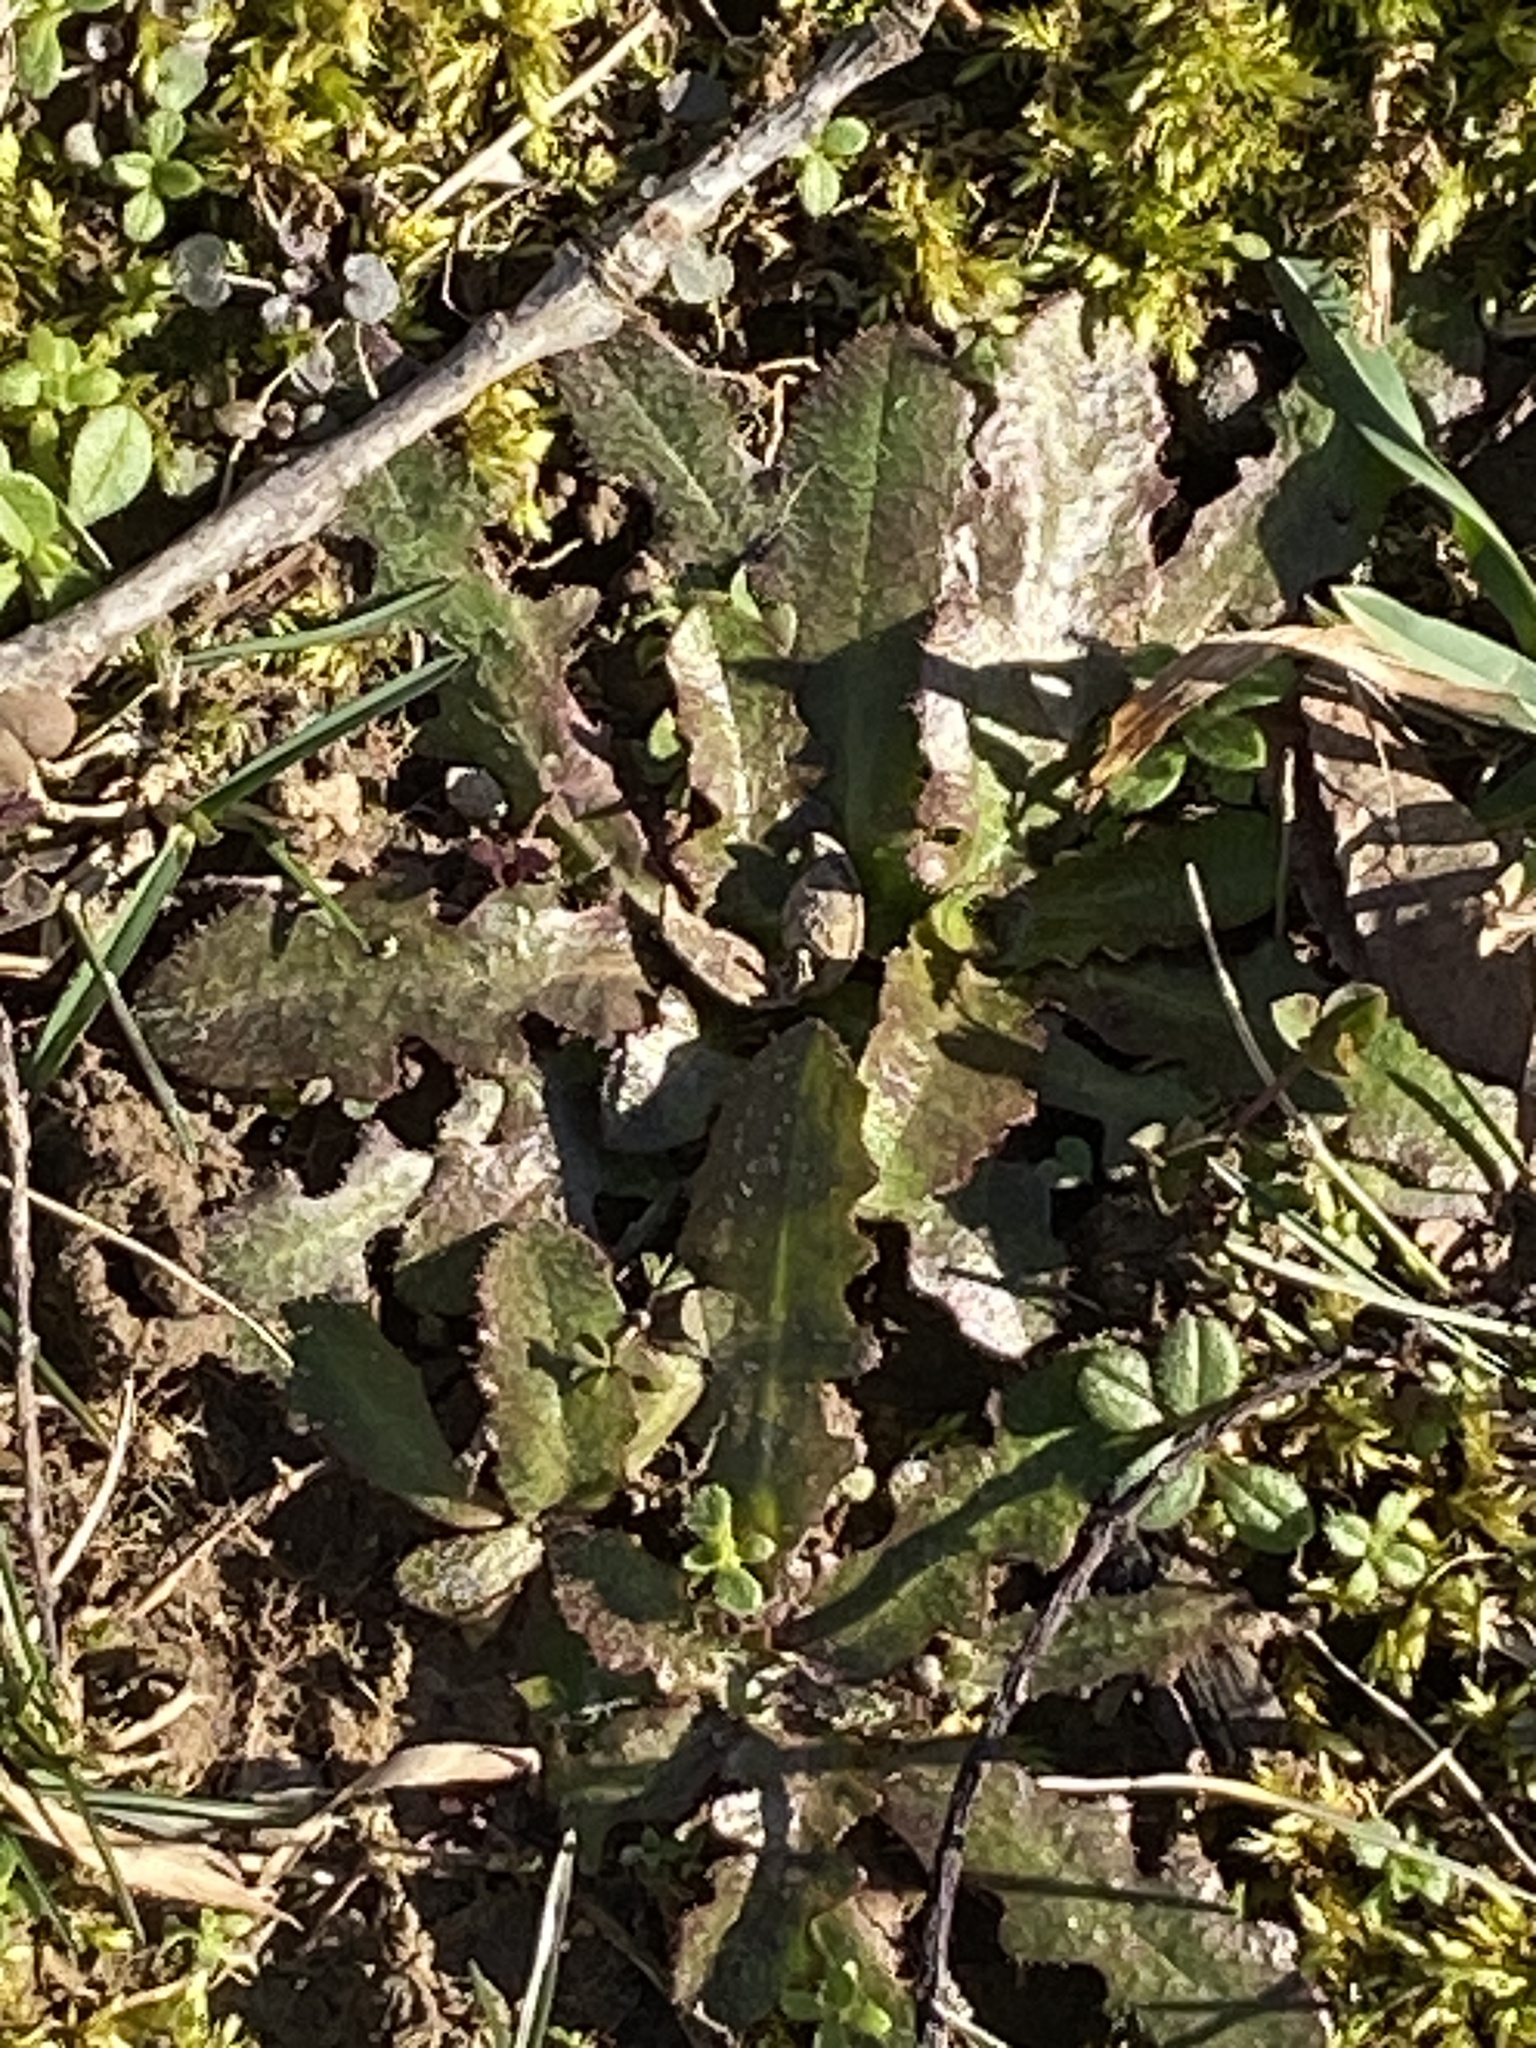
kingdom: Plantae
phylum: Tracheophyta
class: Magnoliopsida
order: Asterales
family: Asteraceae
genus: Hypochaeris
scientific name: Hypochaeris radicata
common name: Flatweed
